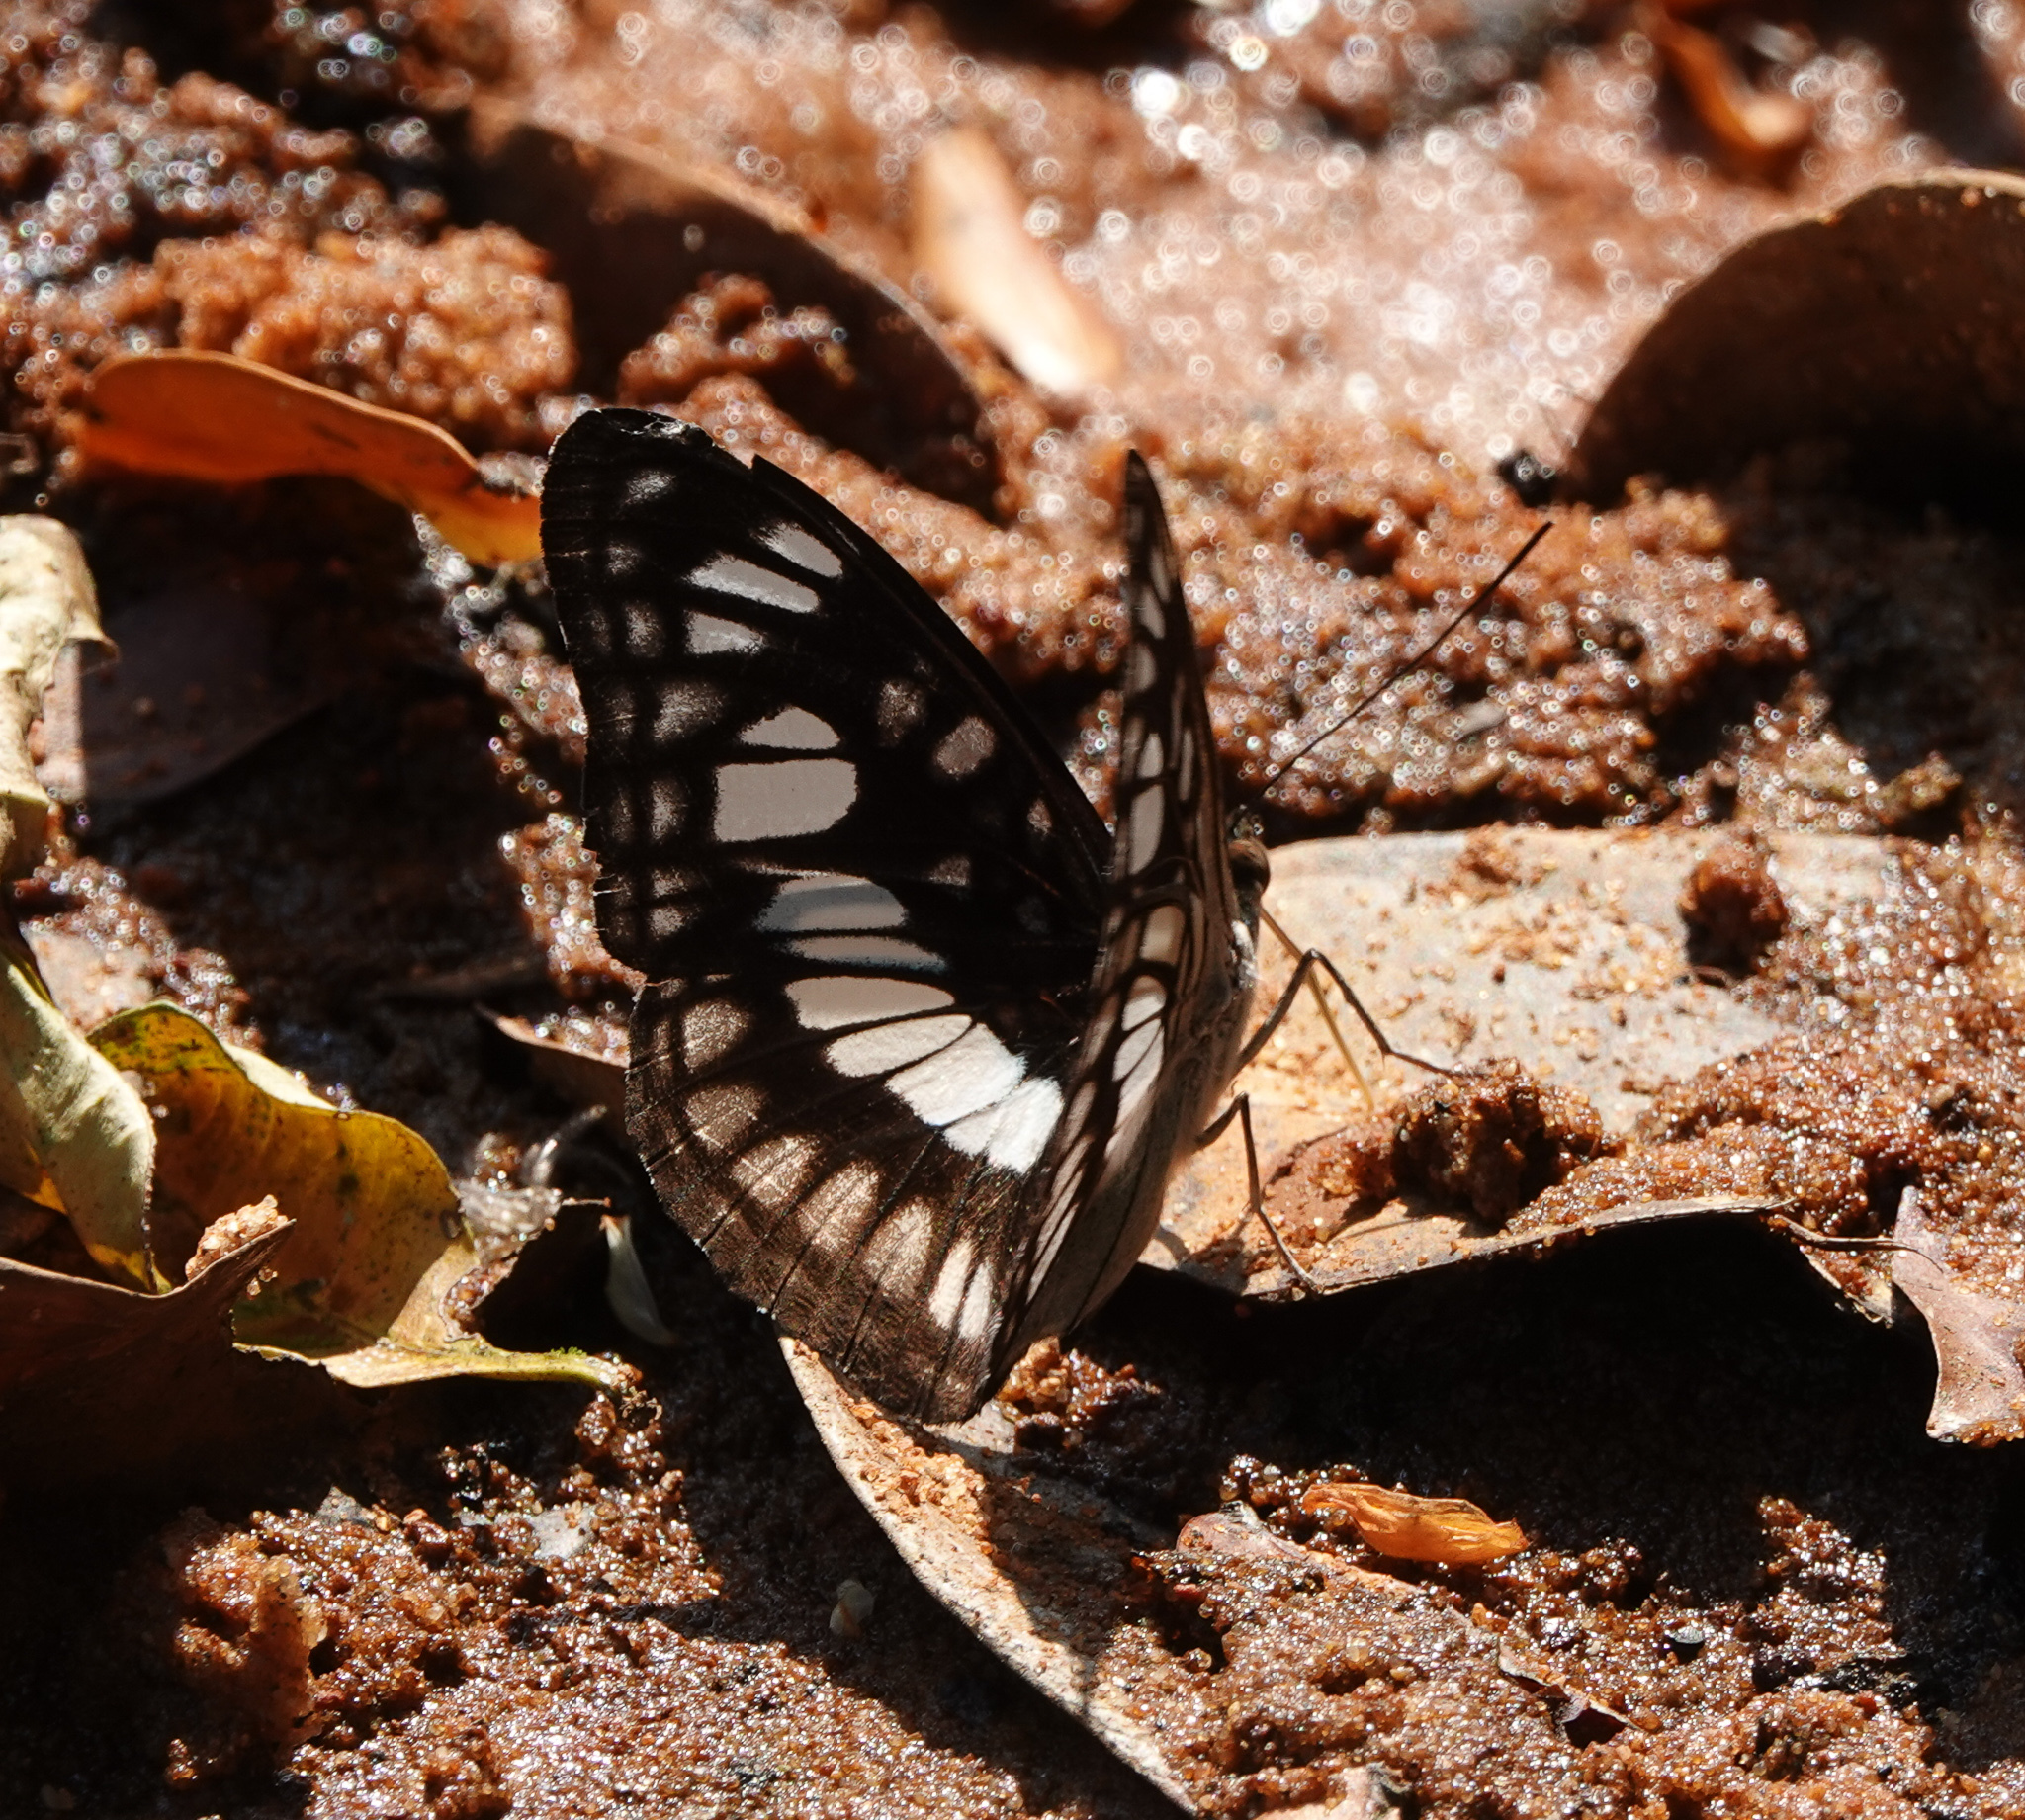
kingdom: Animalia
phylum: Arthropoda
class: Insecta
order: Lepidoptera
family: Nymphalidae
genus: Parathyma
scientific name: Parathyma ranga
